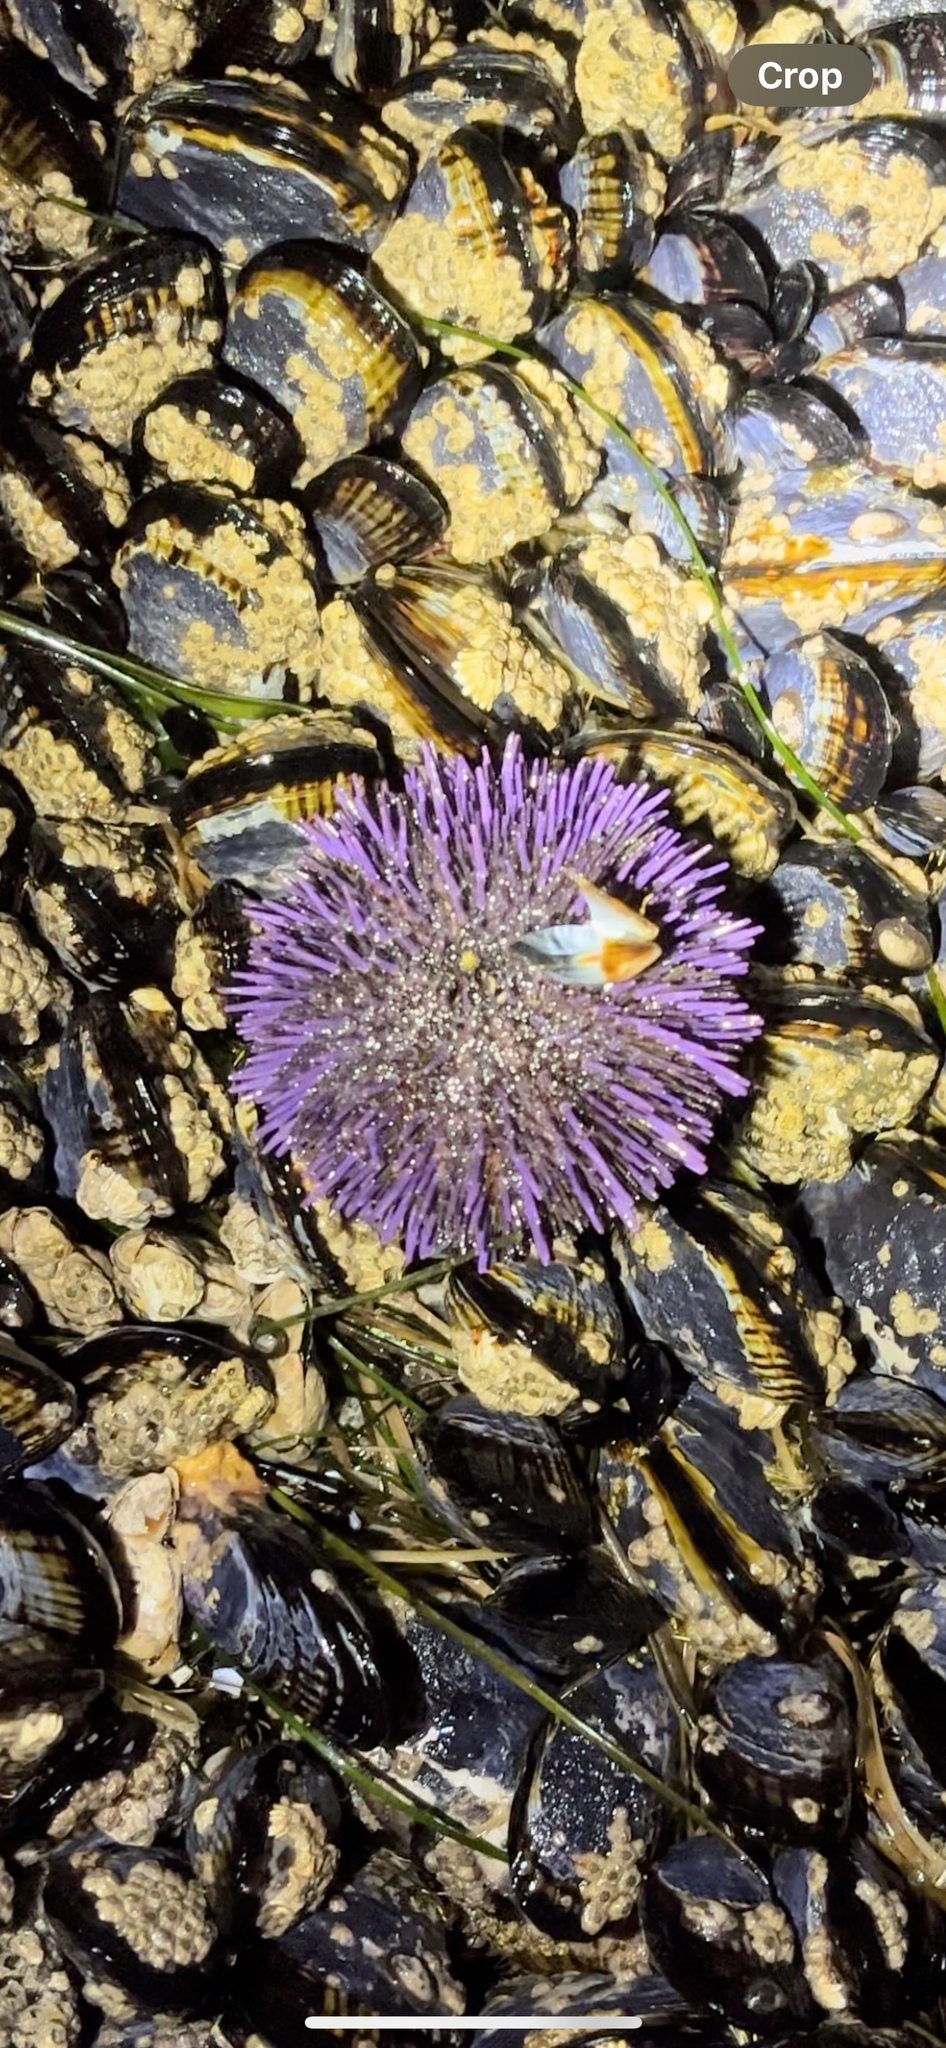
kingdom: Animalia
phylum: Echinodermata
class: Echinoidea
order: Camarodonta
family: Strongylocentrotidae
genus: Strongylocentrotus
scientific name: Strongylocentrotus purpuratus
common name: Purple sea urchin
